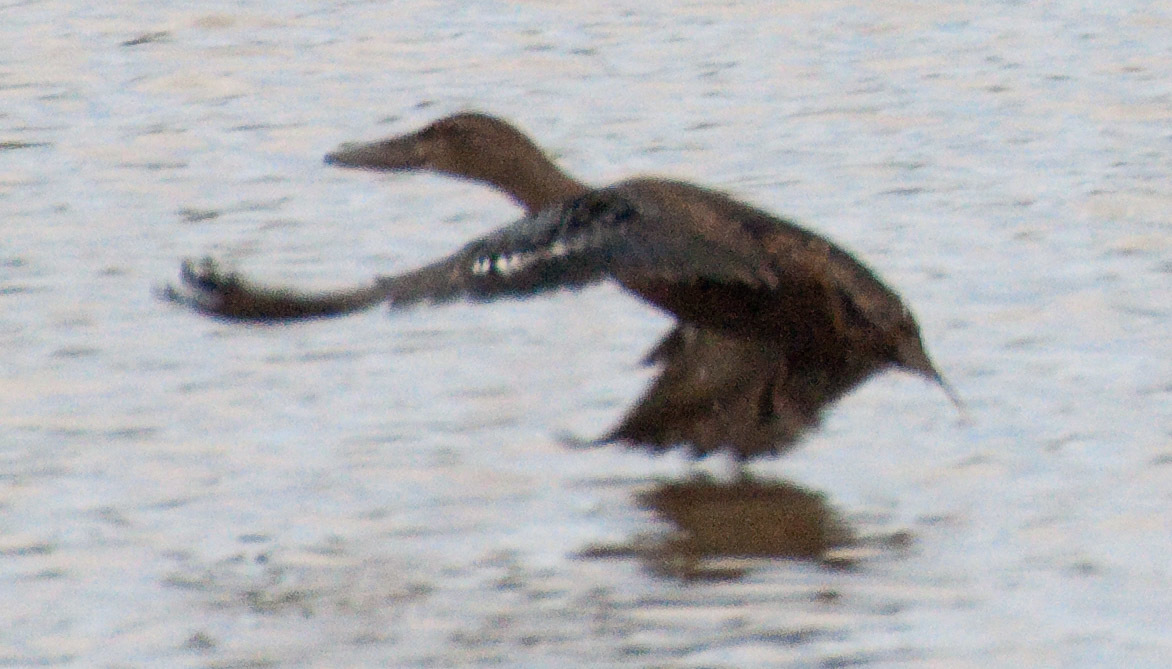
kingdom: Animalia
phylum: Chordata
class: Aves
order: Anseriformes
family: Anatidae
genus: Spatula
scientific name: Spatula rhynchotis
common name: Australian shoveler
